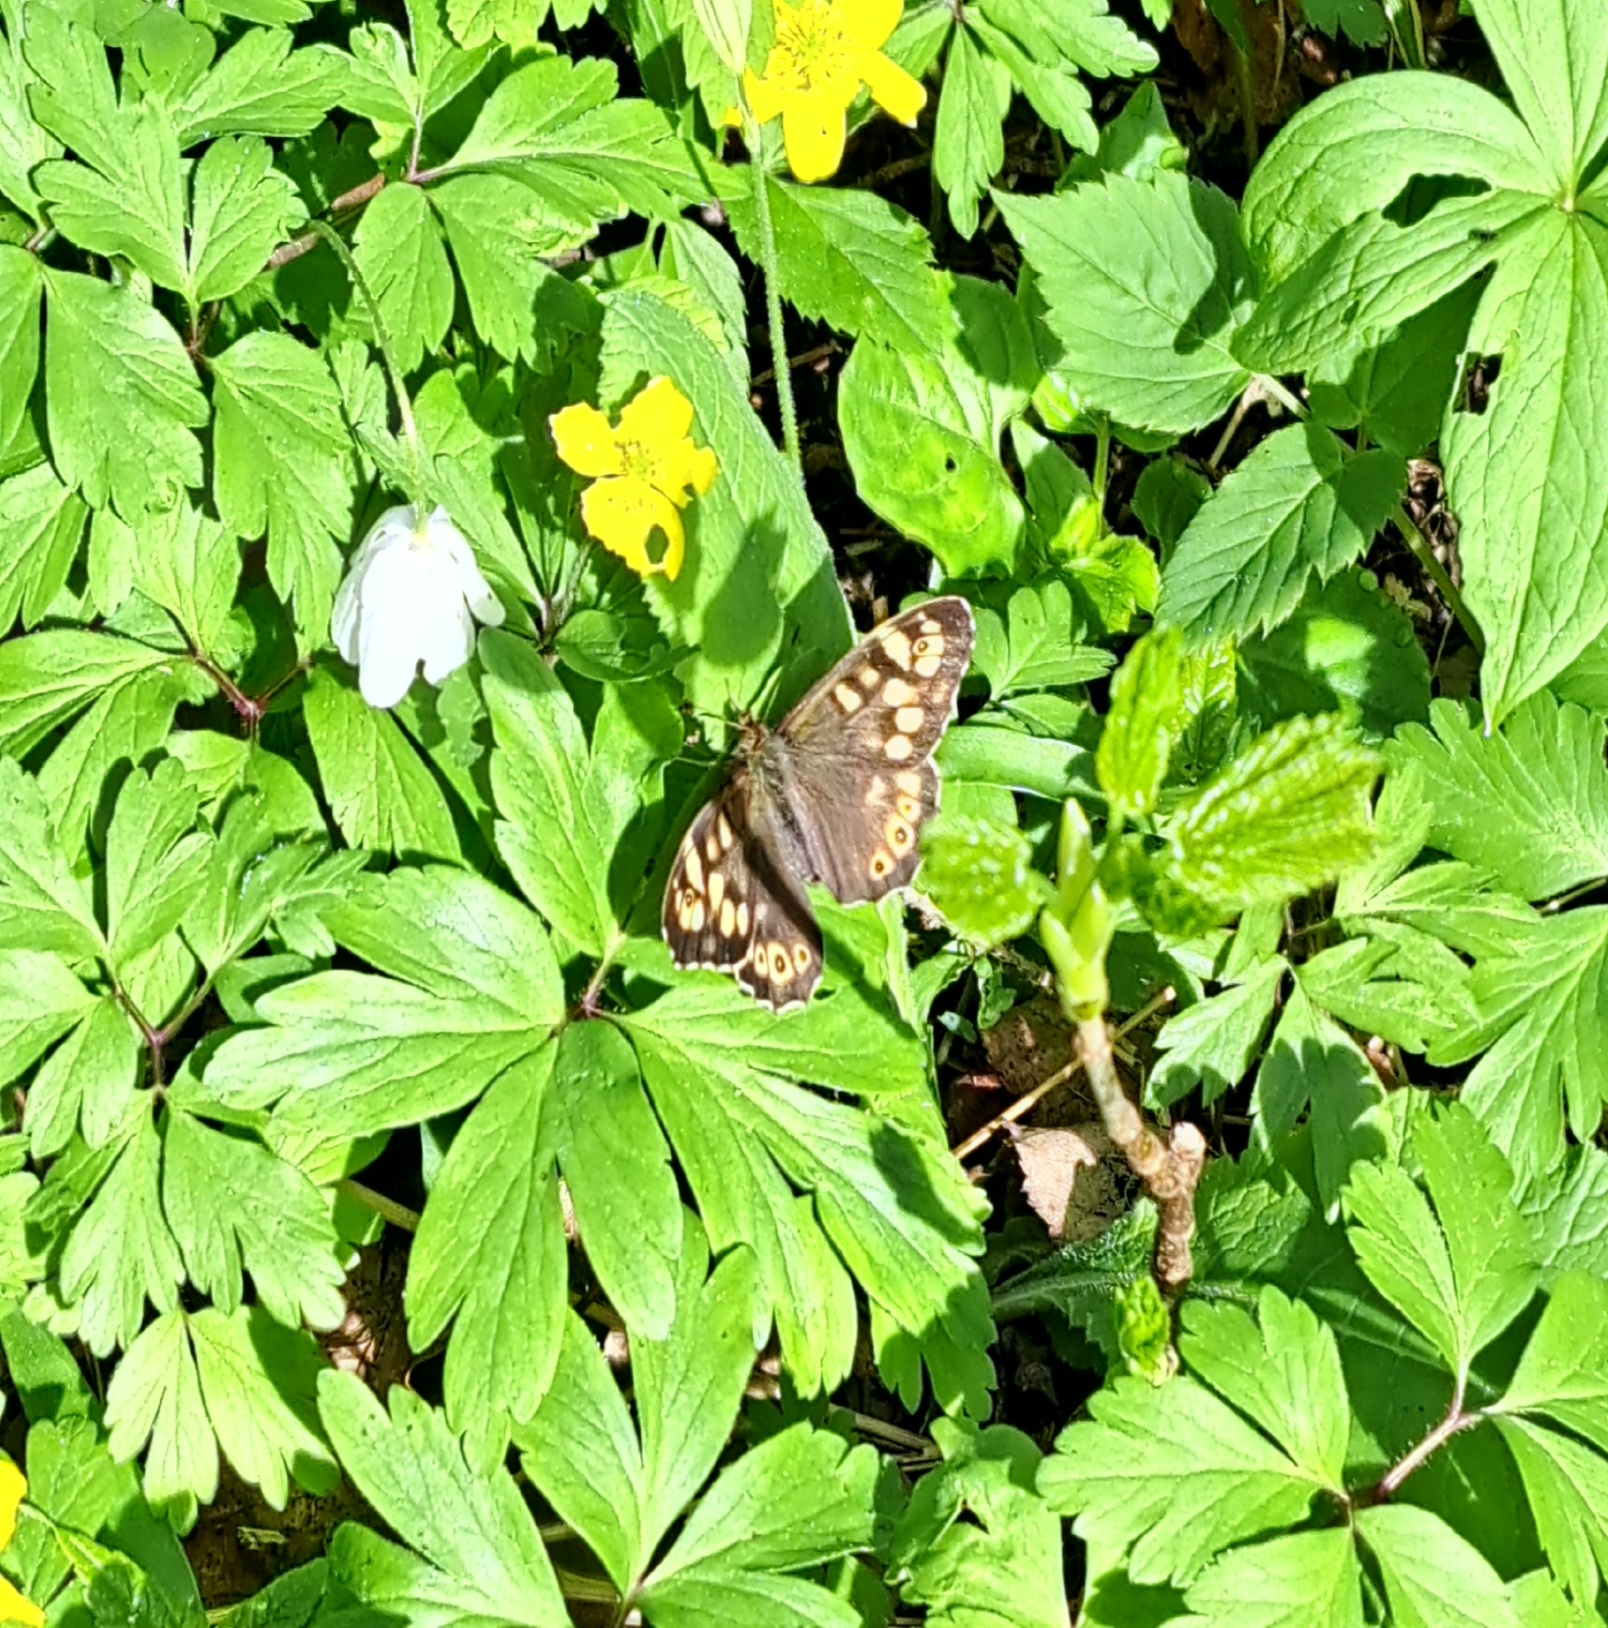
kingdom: Animalia
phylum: Arthropoda
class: Insecta
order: Lepidoptera
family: Nymphalidae
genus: Pararge
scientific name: Pararge aegeria
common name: Speckled wood
